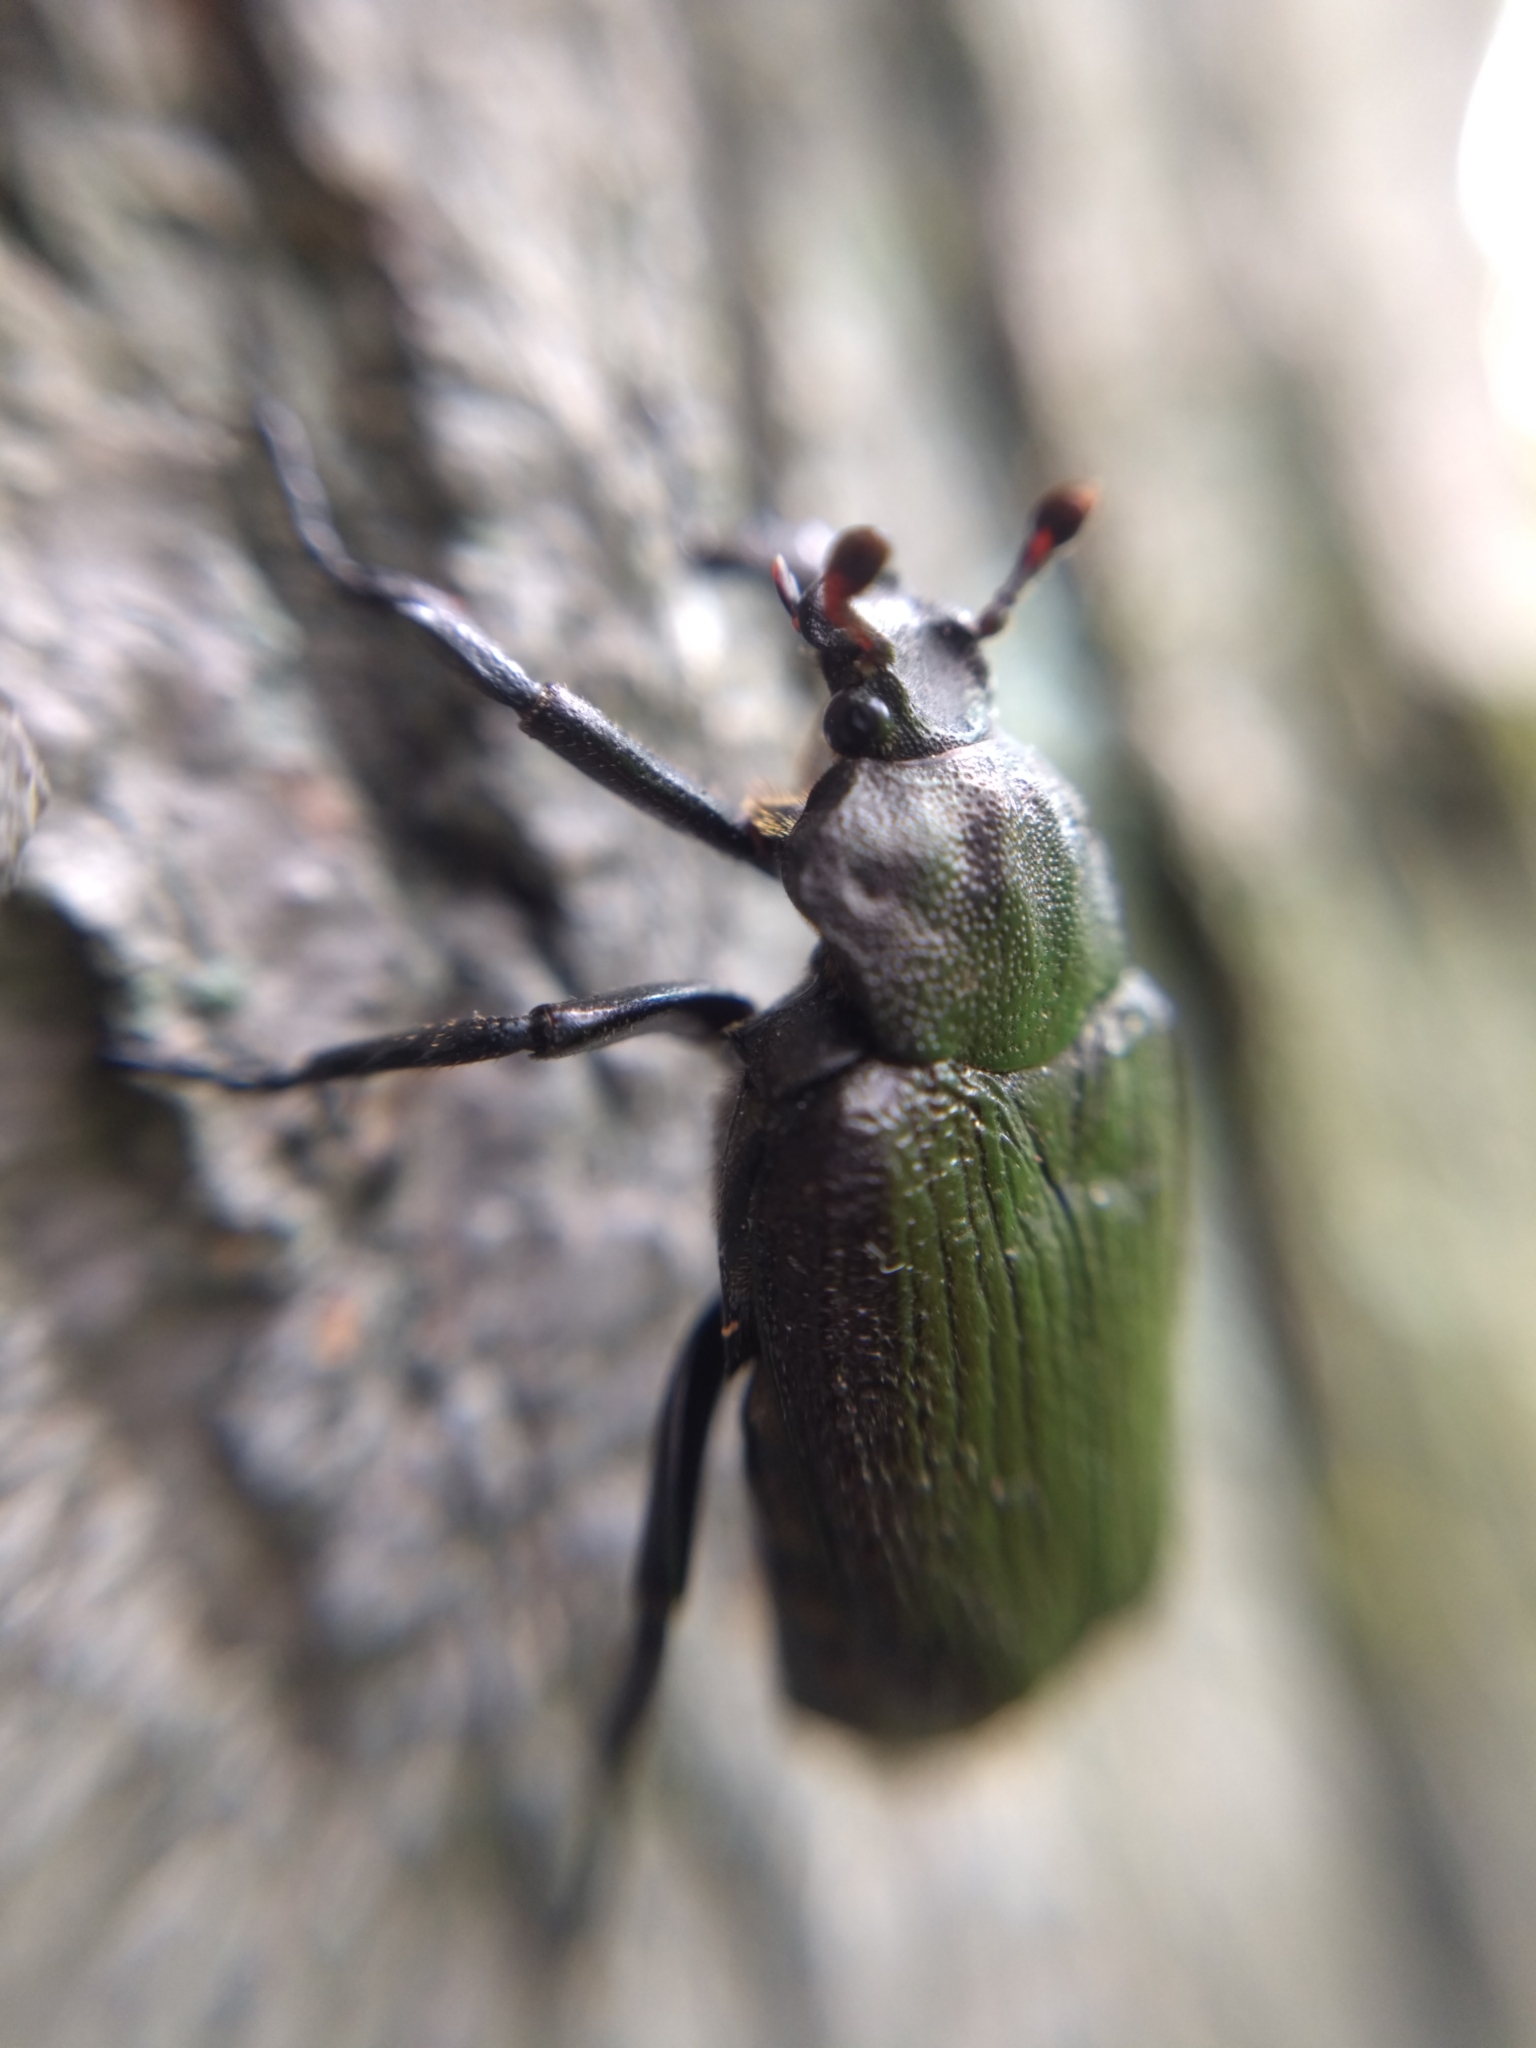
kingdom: Animalia
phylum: Arthropoda
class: Insecta
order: Coleoptera
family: Scarabaeidae
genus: Osmoderma
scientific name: Osmoderma scabra
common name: Rough hermit beetle
